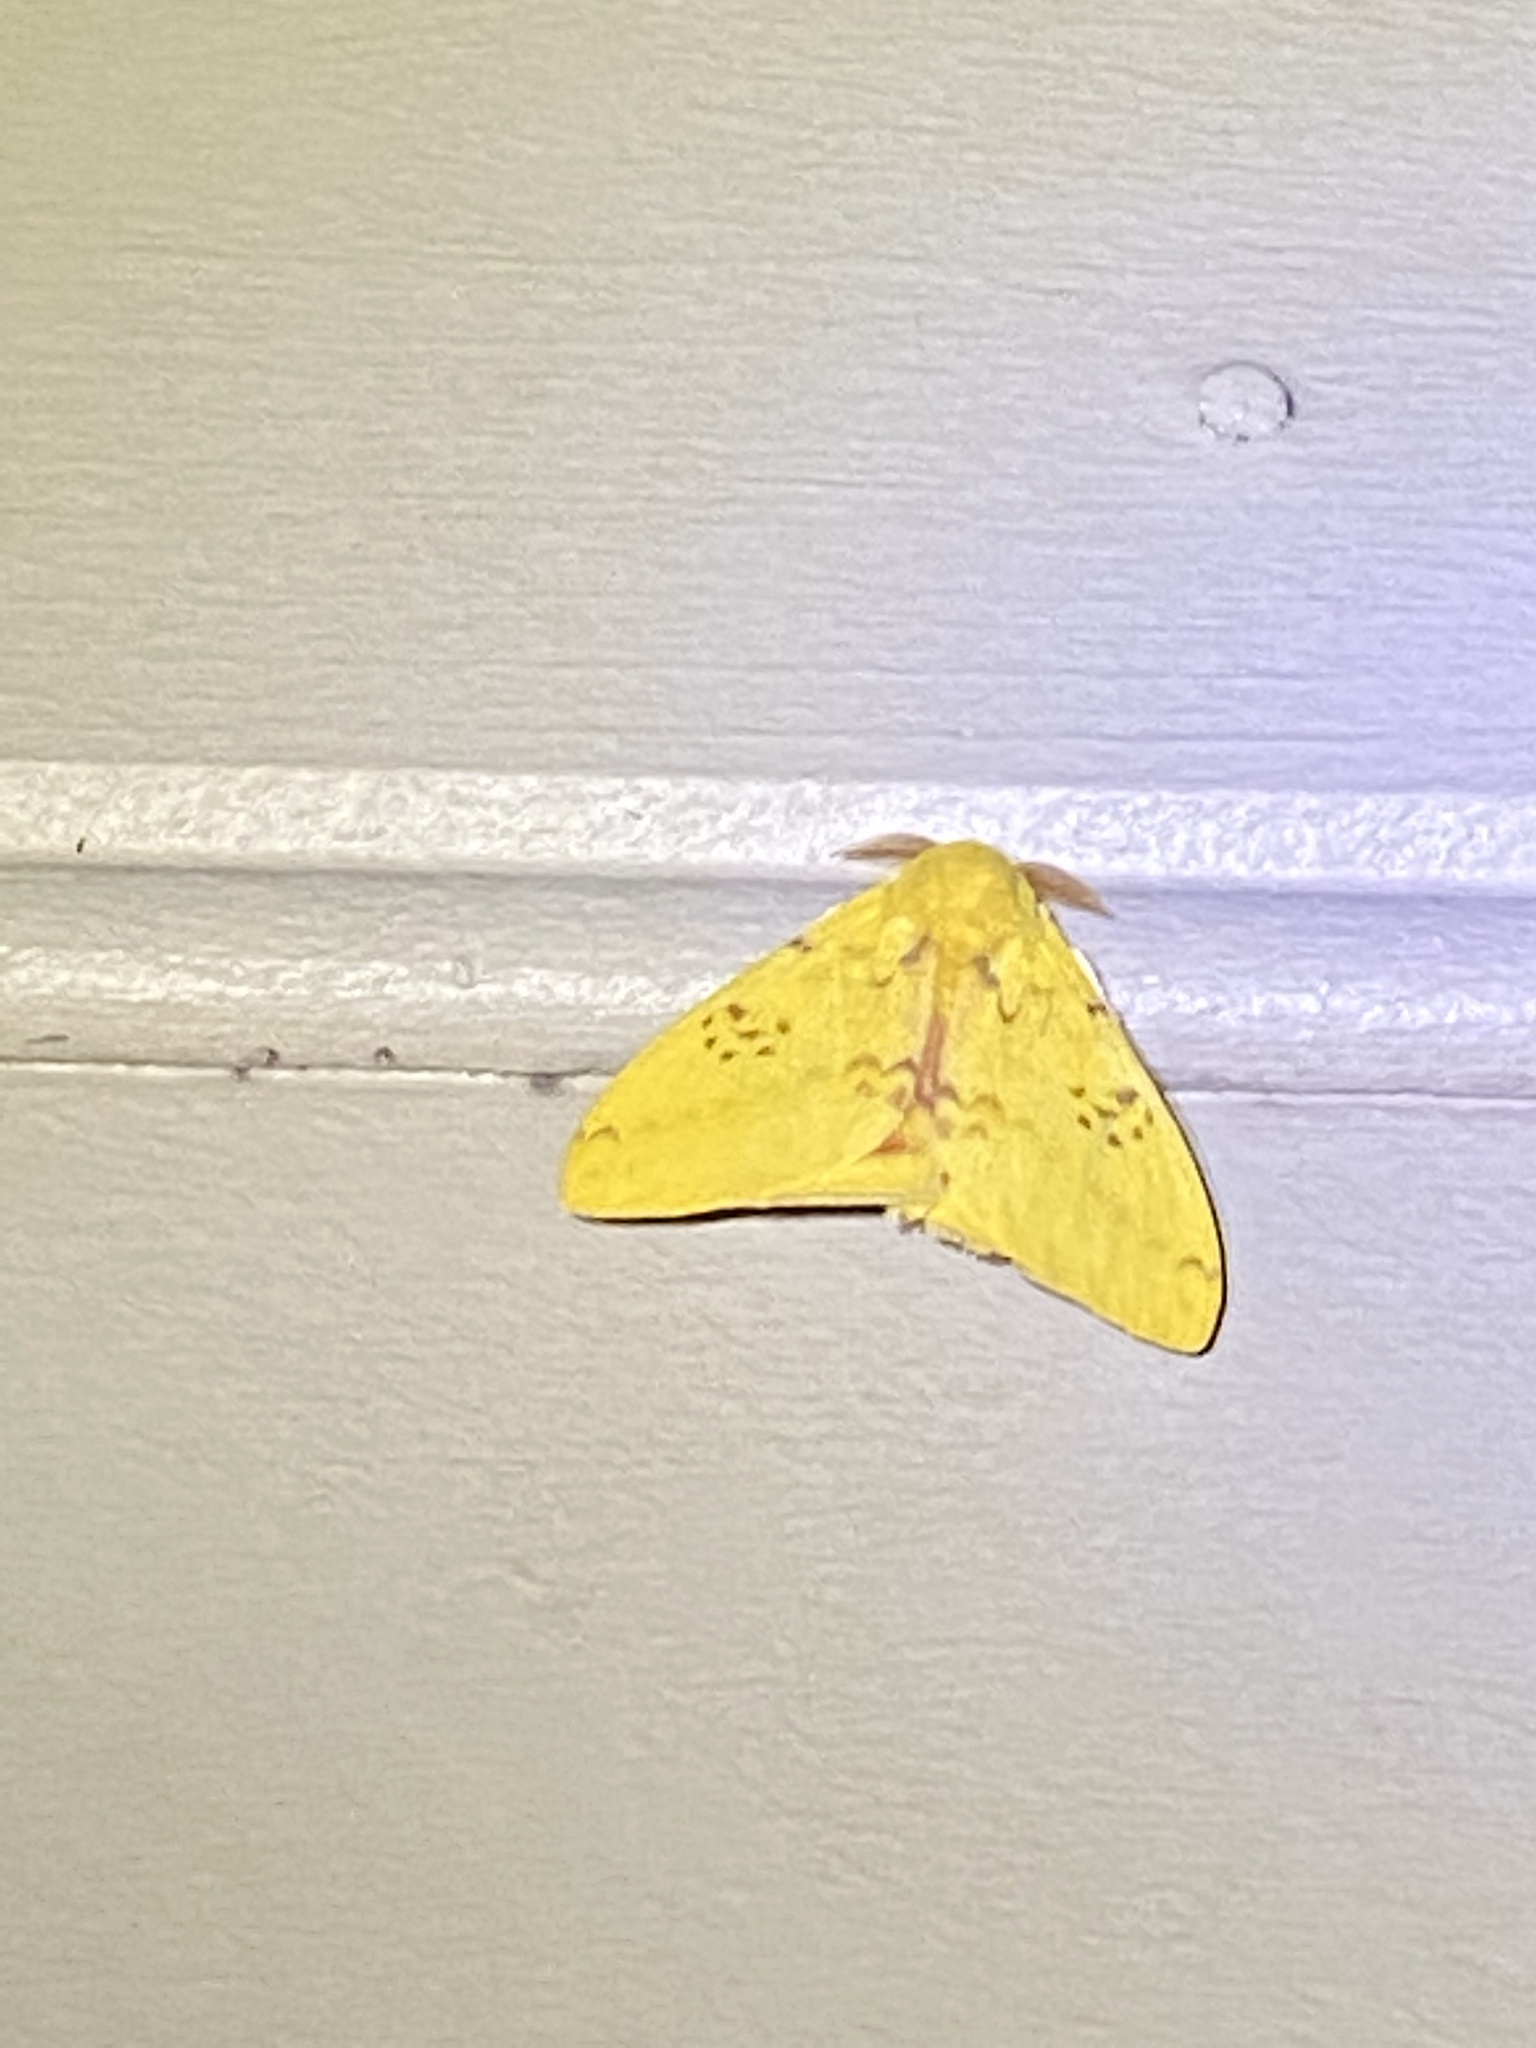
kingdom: Animalia
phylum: Arthropoda
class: Insecta
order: Lepidoptera
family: Saturniidae
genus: Automeris
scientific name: Automeris io
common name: Io moth
